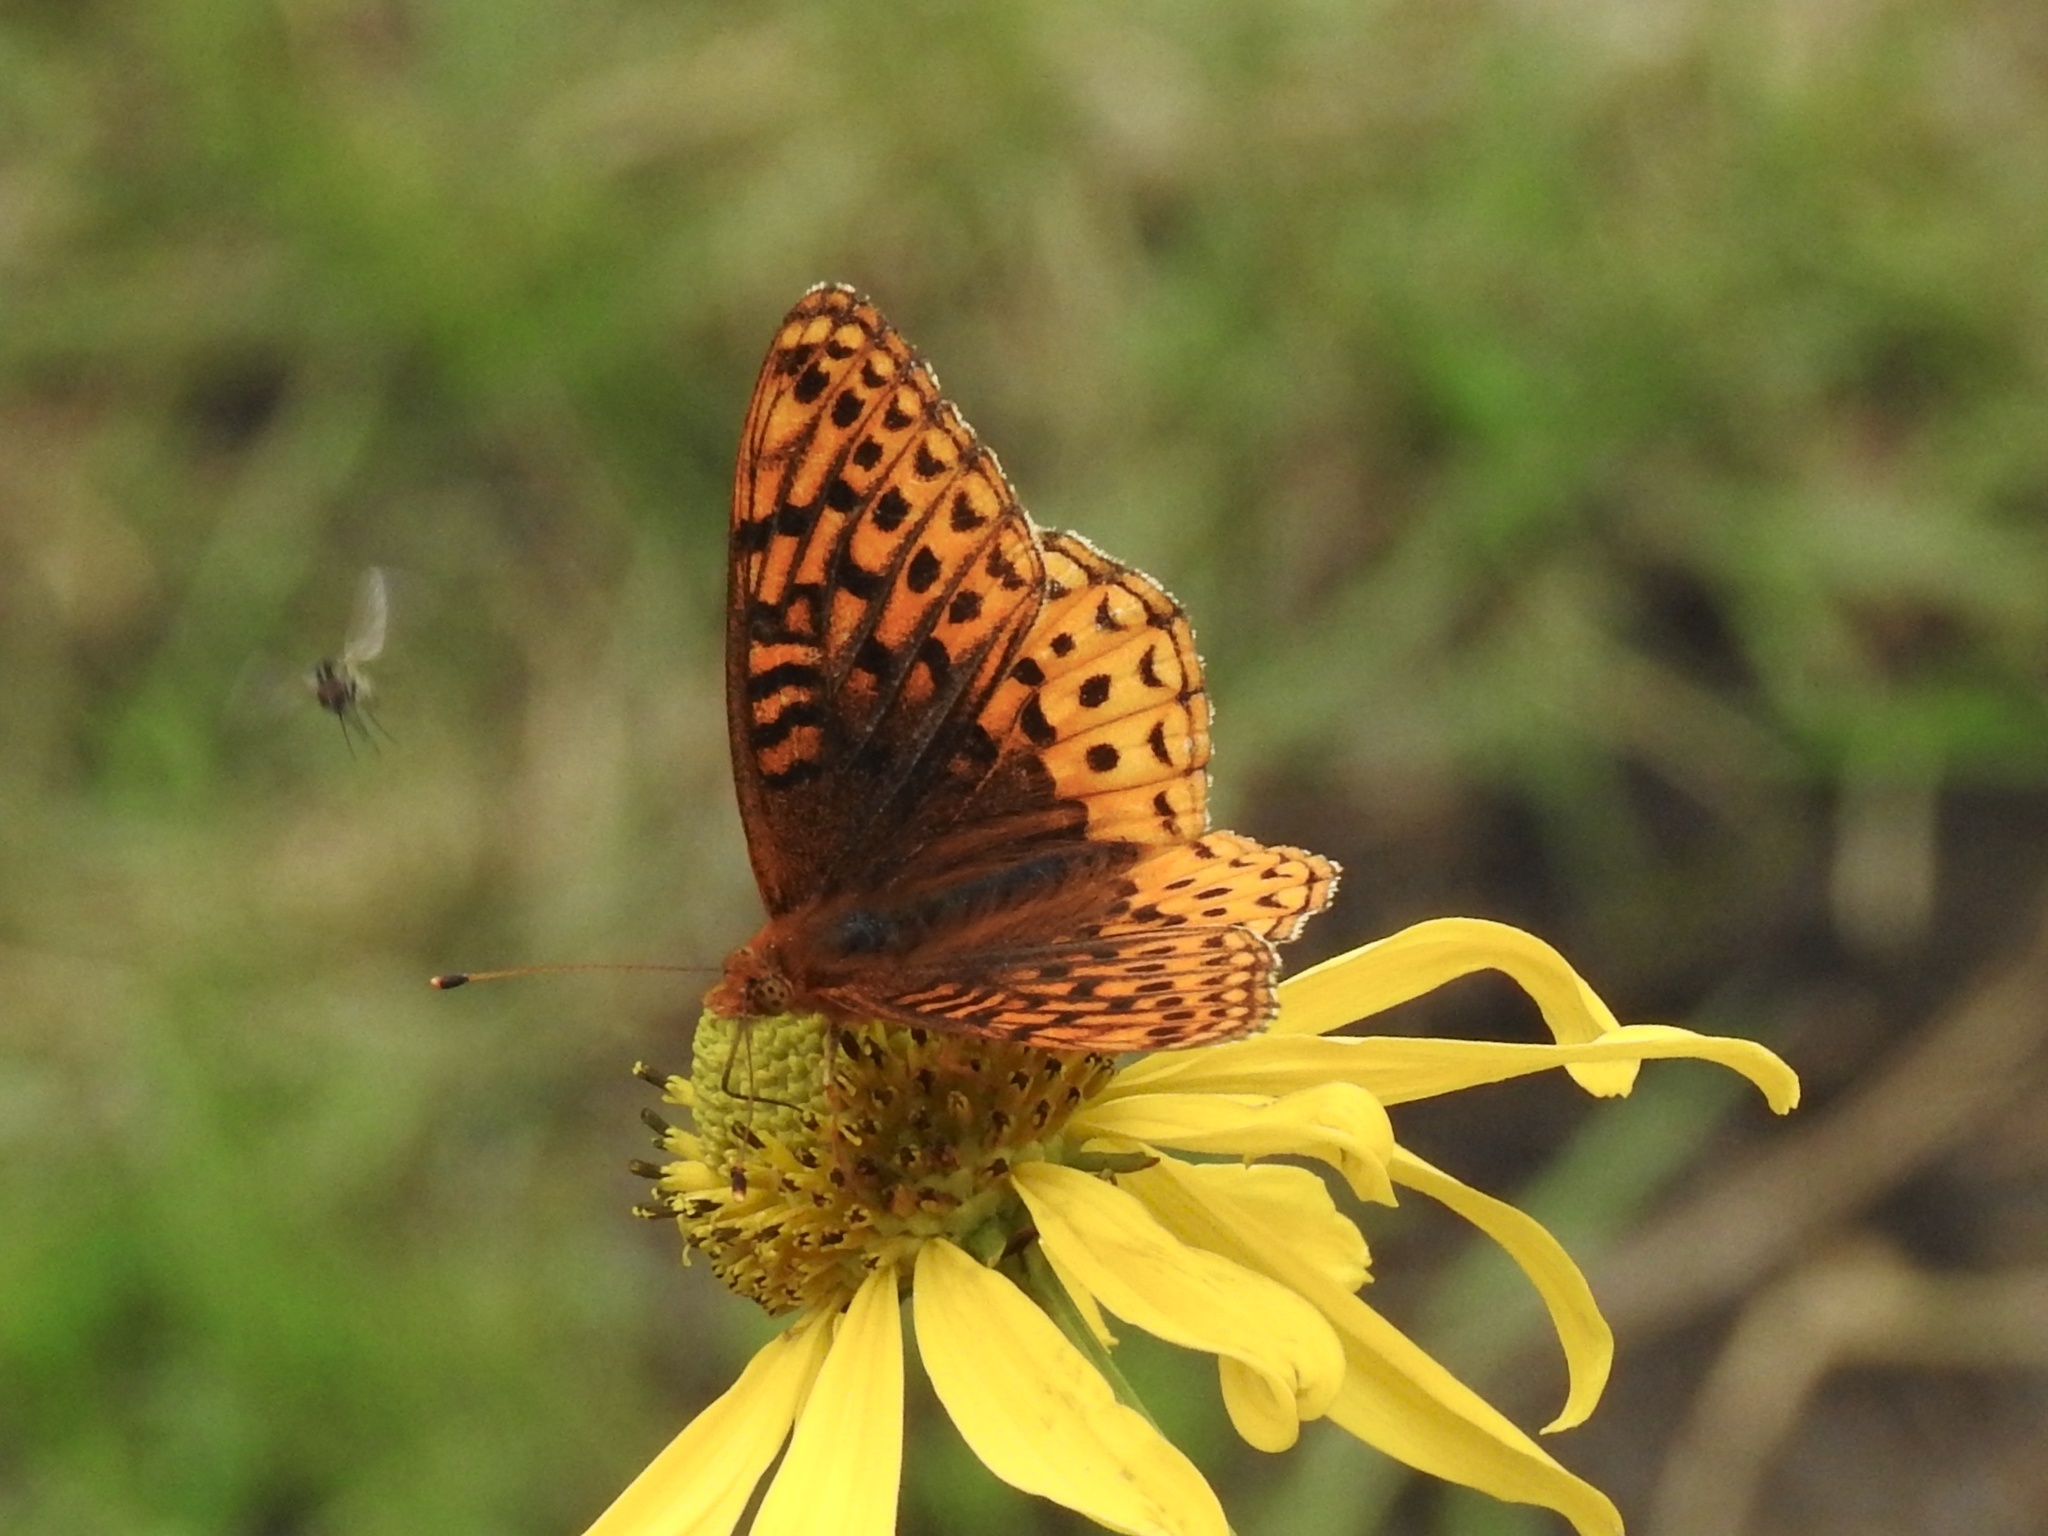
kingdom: Animalia
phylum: Arthropoda
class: Insecta
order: Lepidoptera
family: Nymphalidae
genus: Speyeria
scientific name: Speyeria atlantis
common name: Atlantis fritillary
